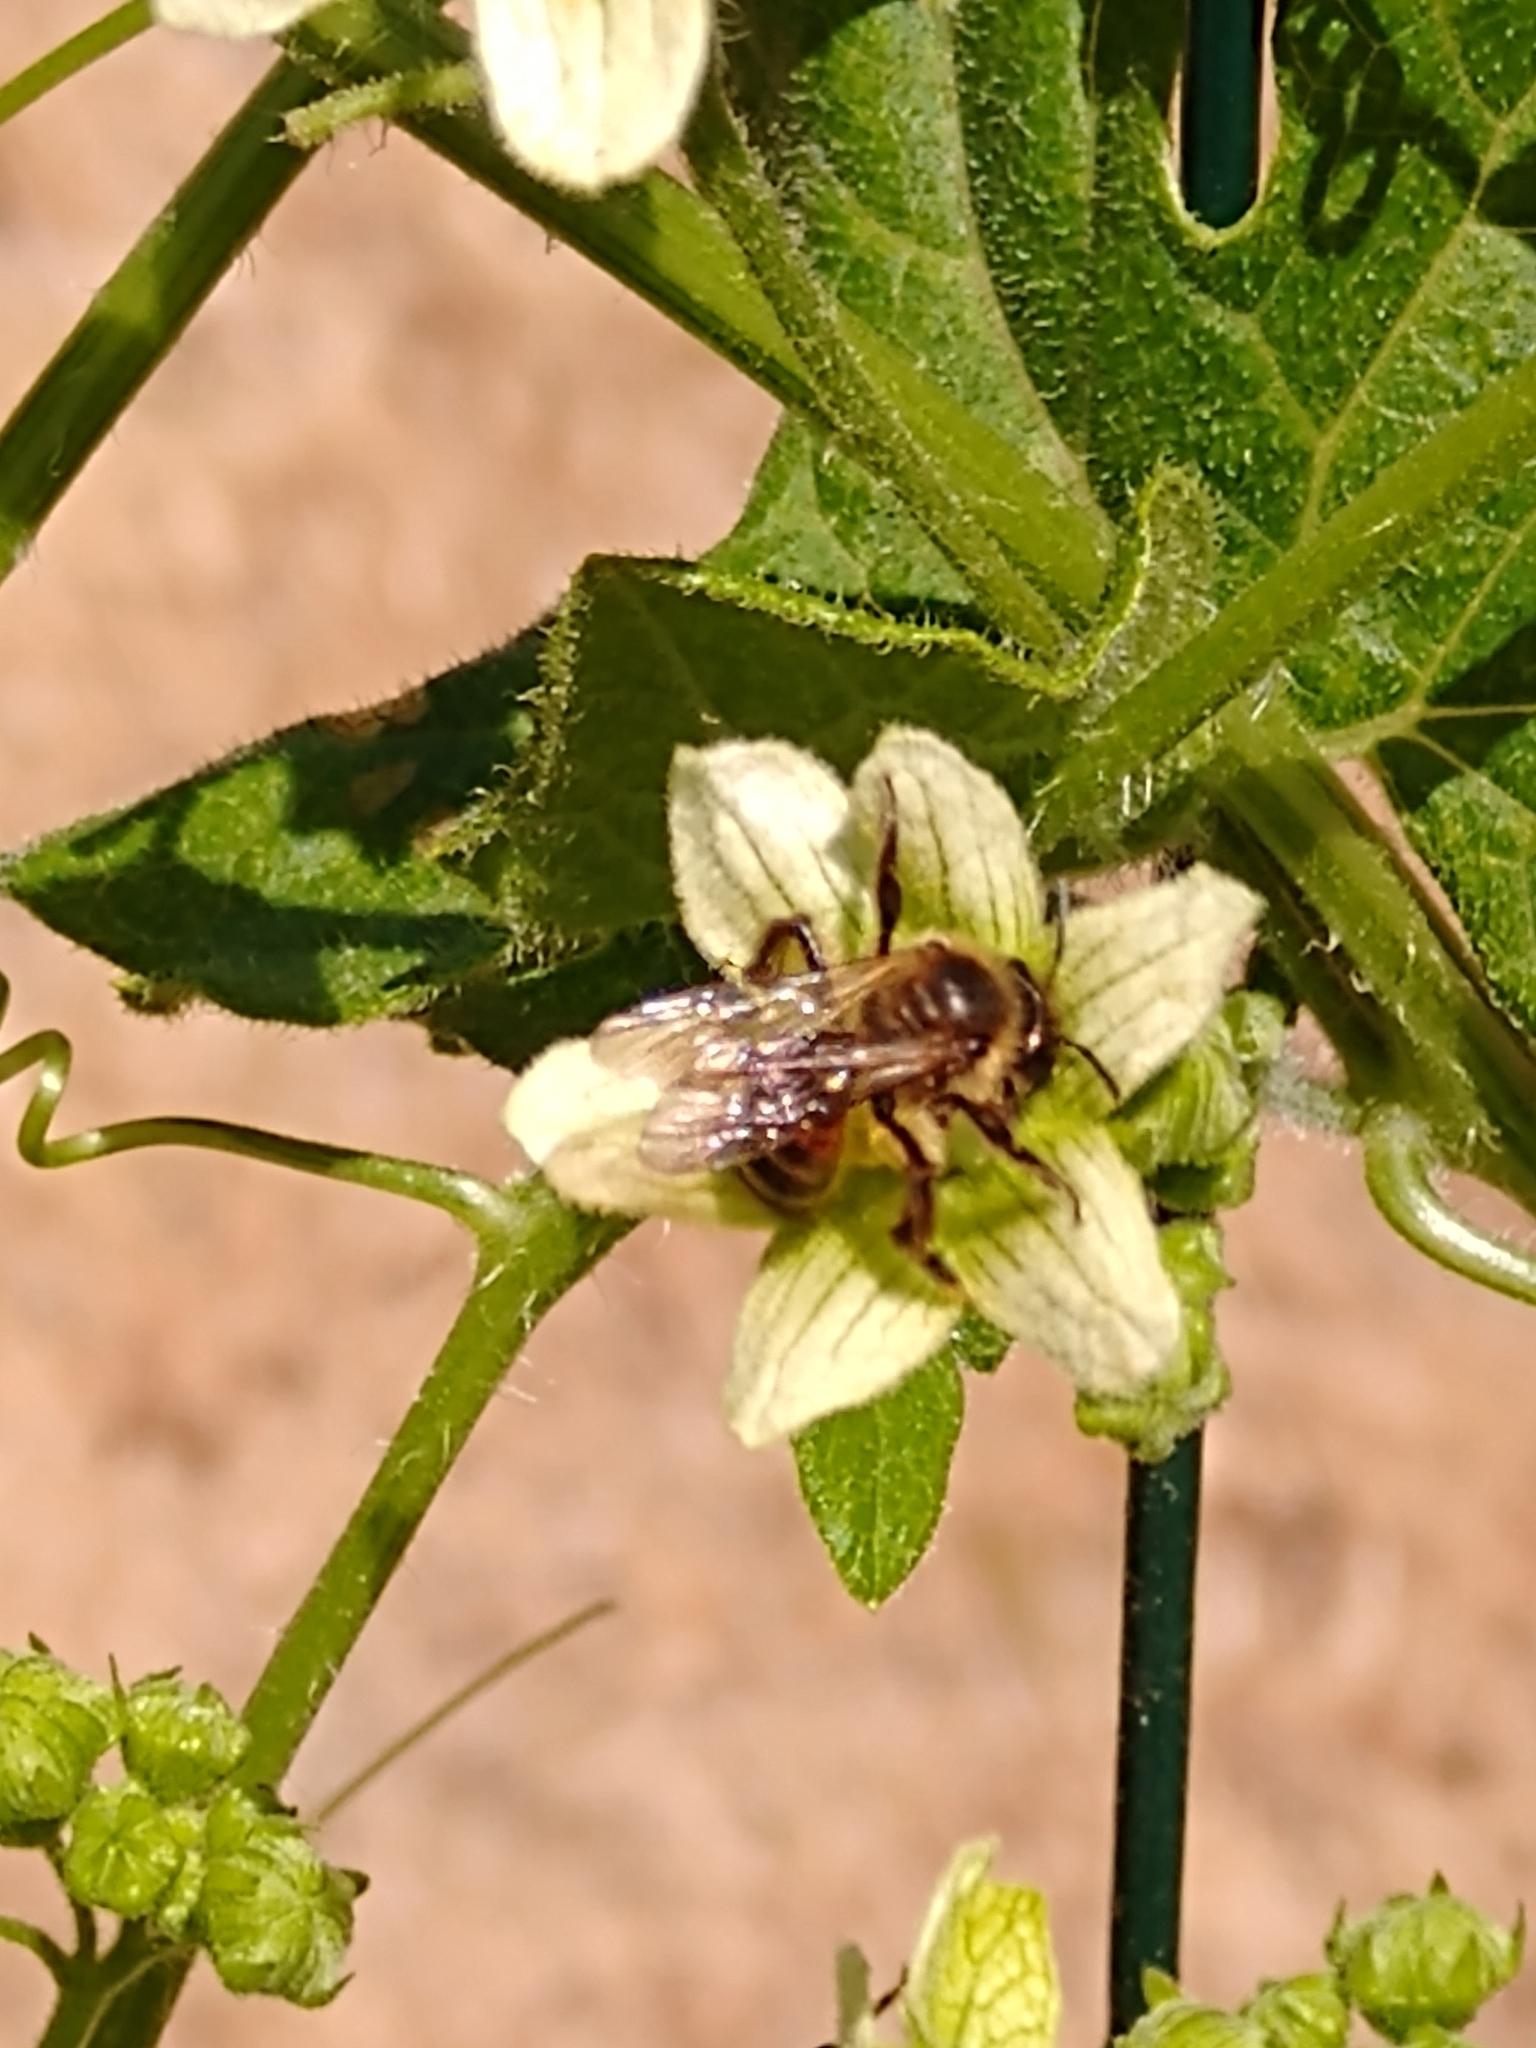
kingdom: Animalia
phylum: Arthropoda
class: Insecta
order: Hymenoptera
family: Andrenidae
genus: Andrena
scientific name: Andrena florea
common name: Bryony mining bee
